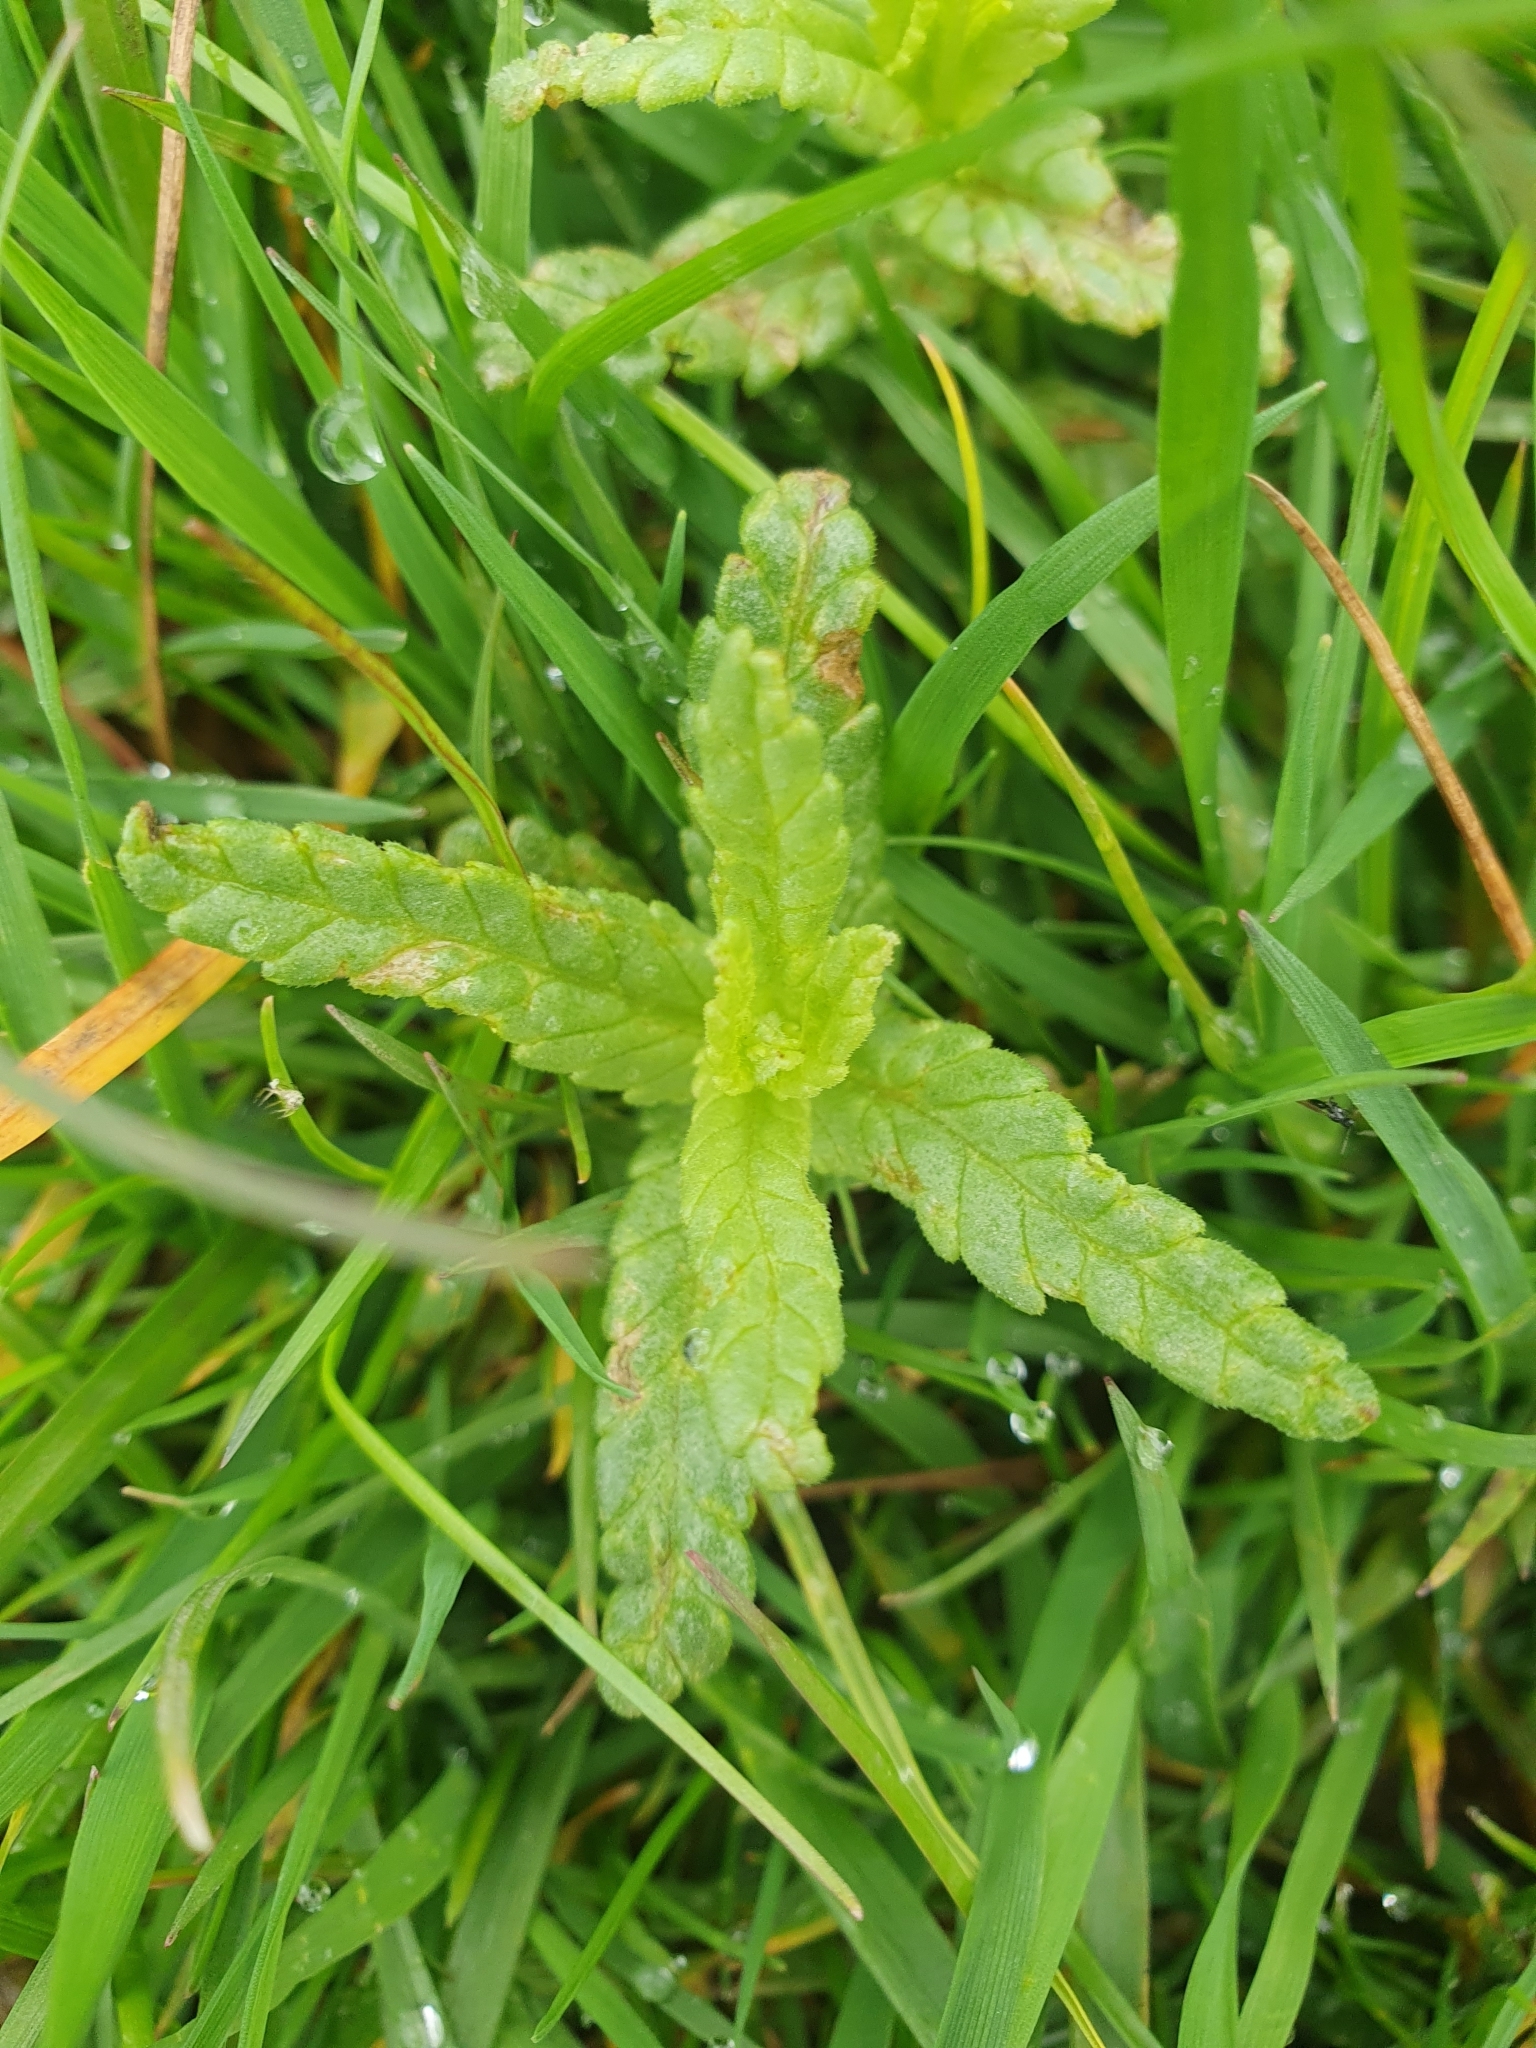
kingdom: Plantae
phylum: Tracheophyta
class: Magnoliopsida
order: Lamiales
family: Orobanchaceae
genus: Rhinanthus
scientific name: Rhinanthus minor
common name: Yellow-rattle
